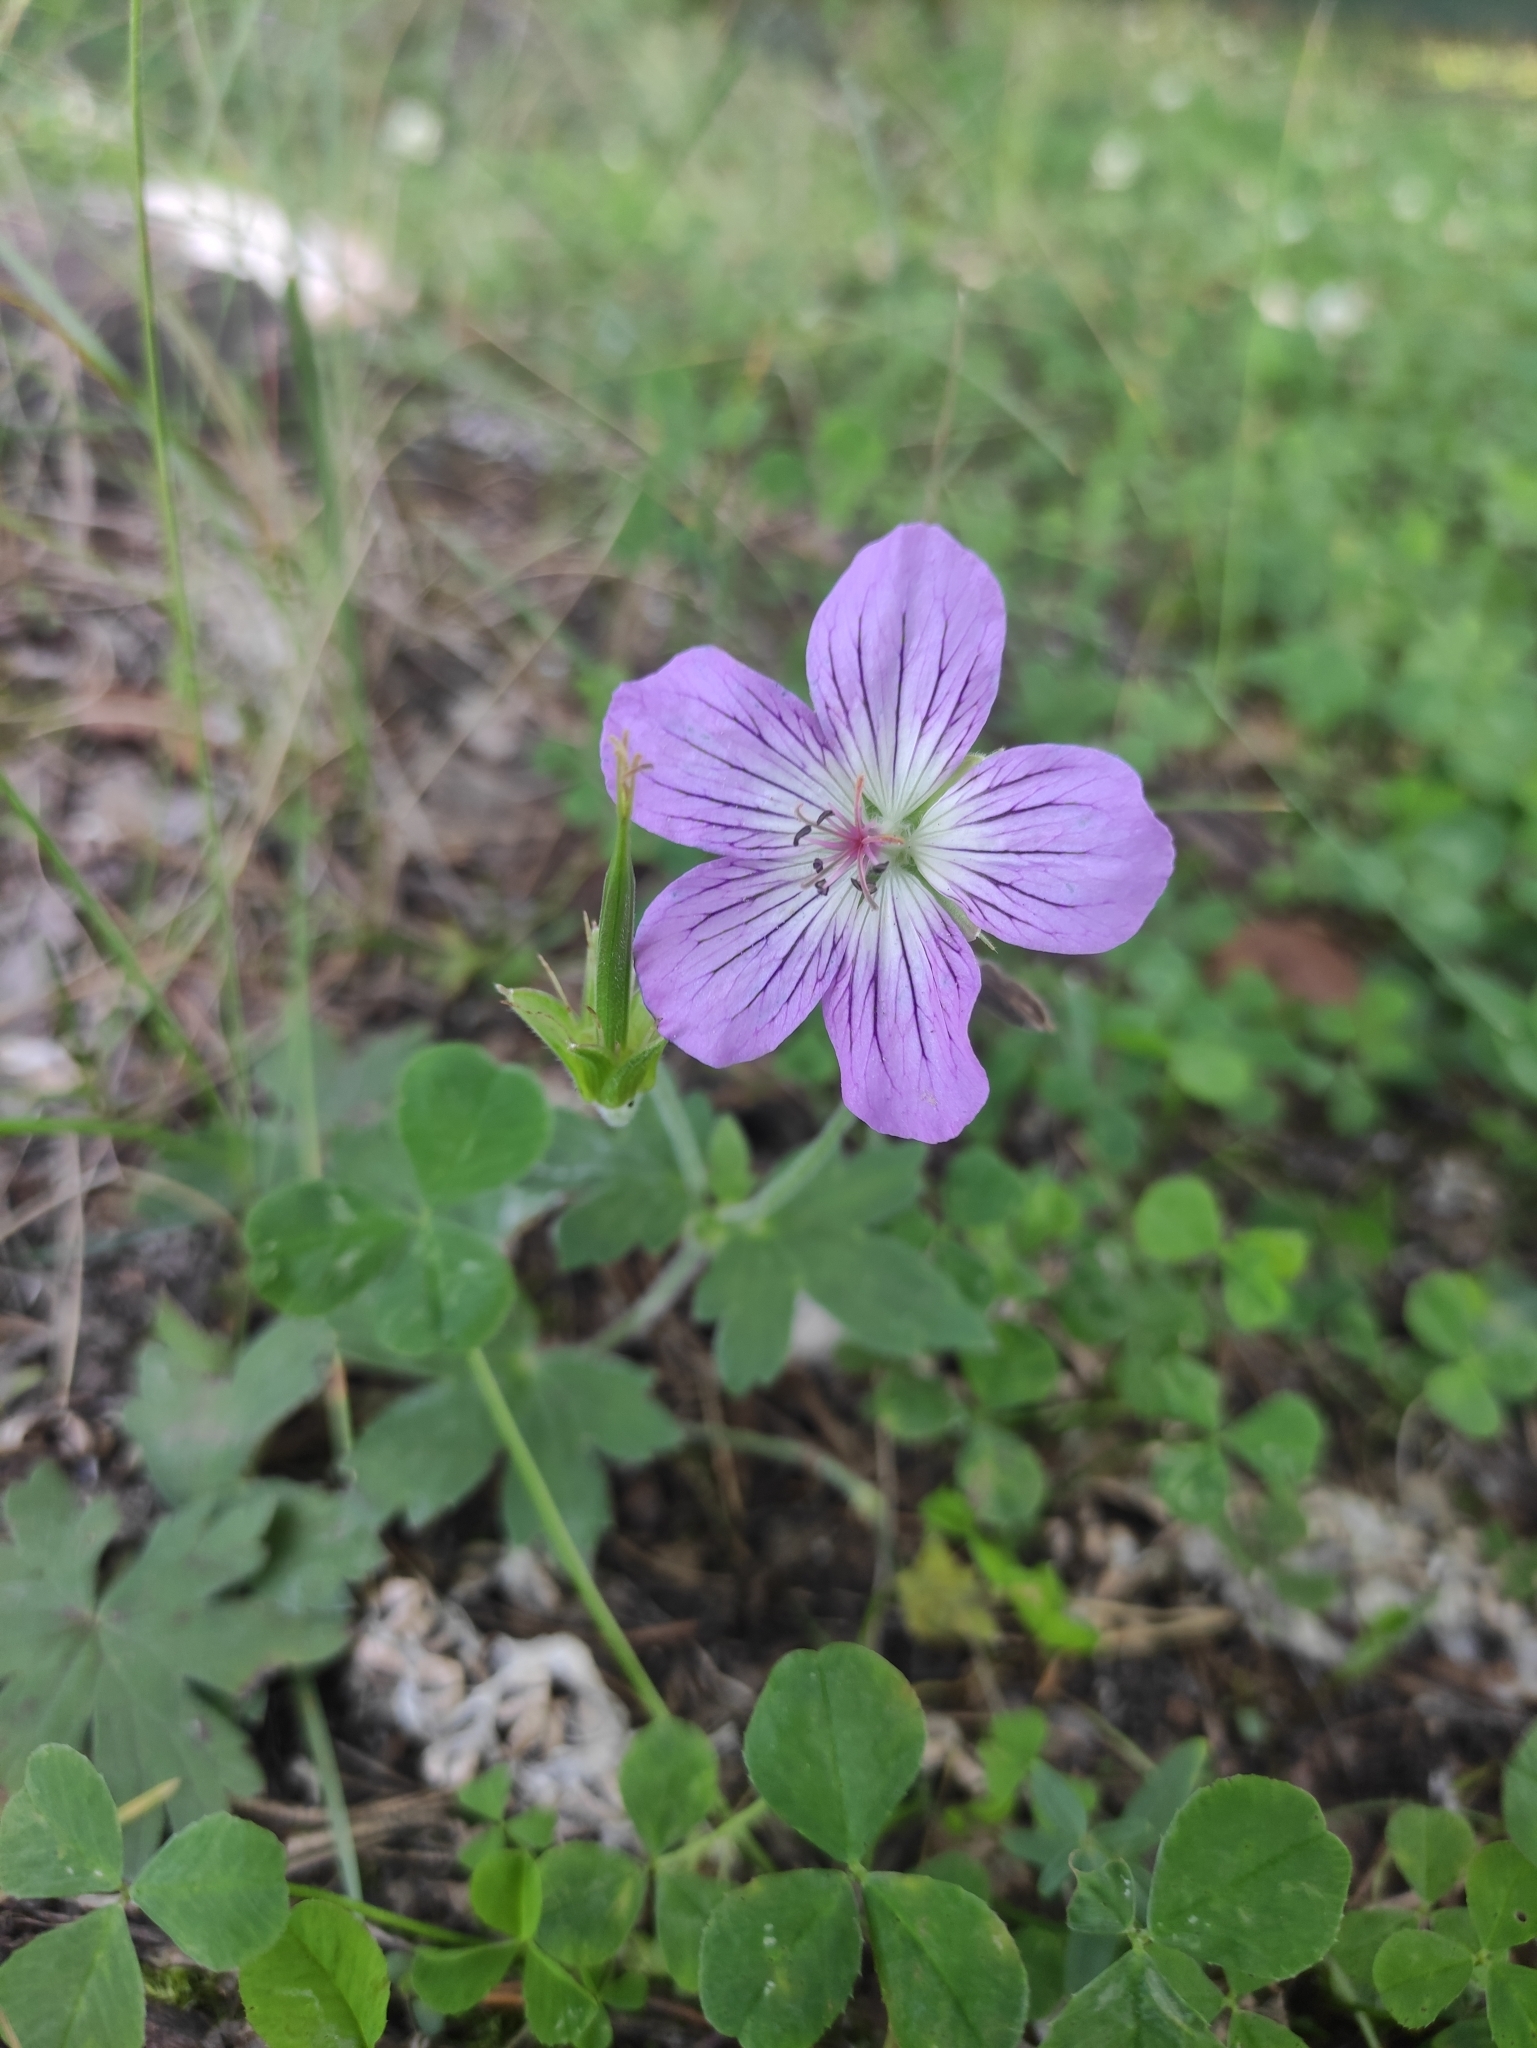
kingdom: Plantae
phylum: Tracheophyta
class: Magnoliopsida
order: Geraniales
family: Geraniaceae
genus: Geranium
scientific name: Geranium wlassovianum
